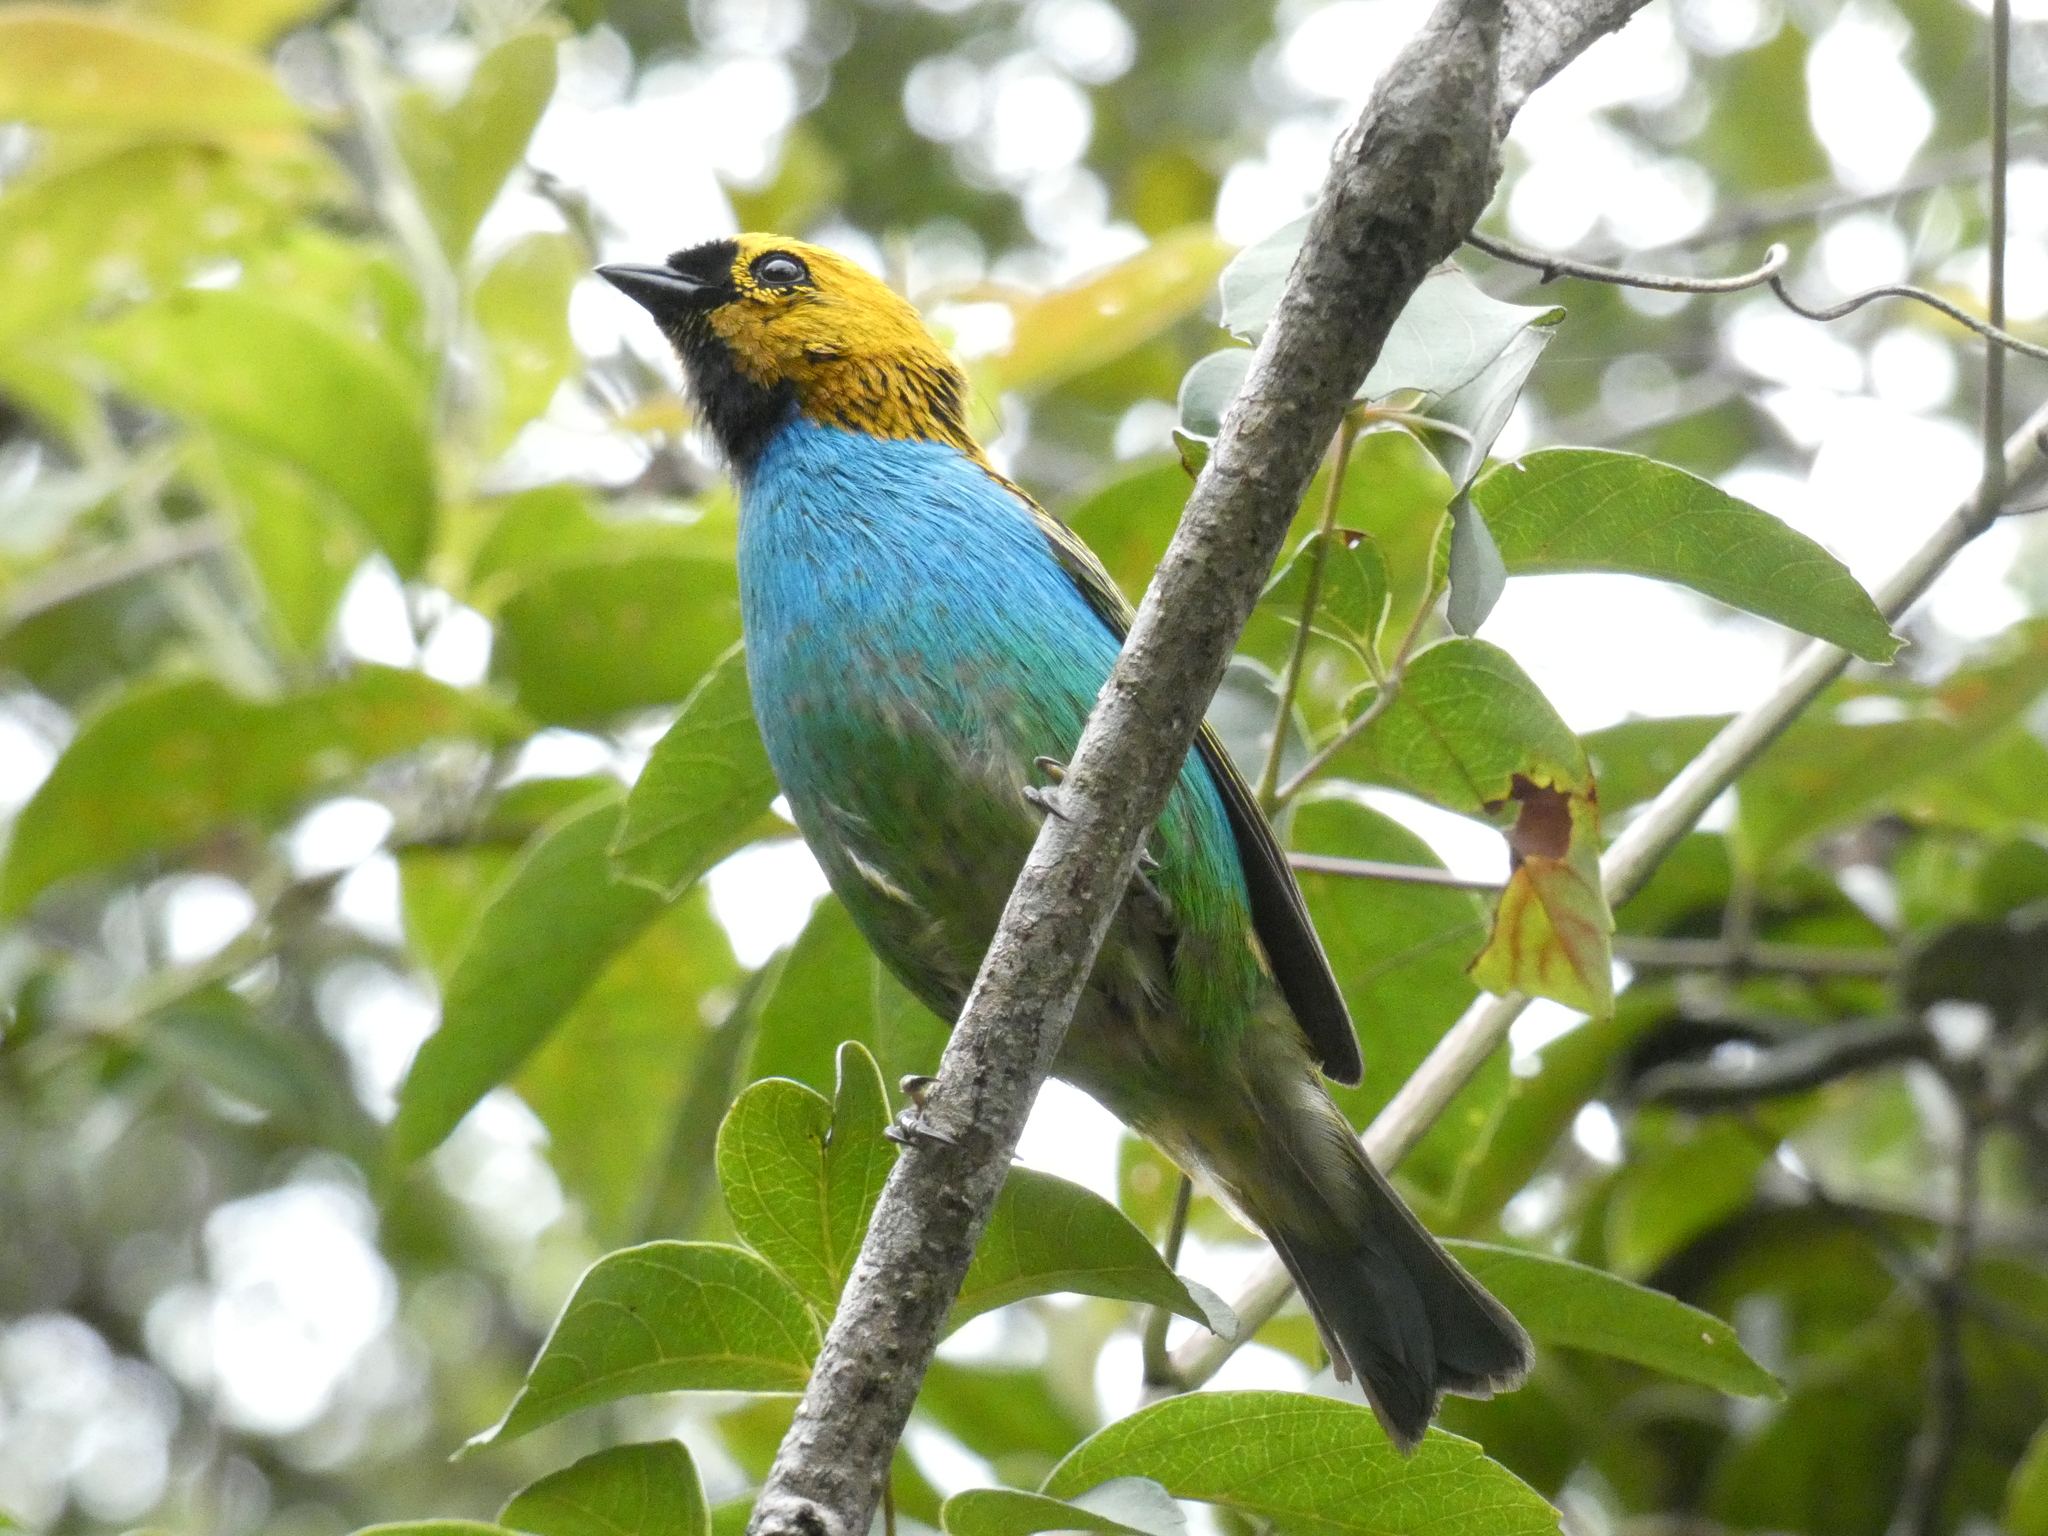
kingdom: Animalia
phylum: Chordata
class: Aves
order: Passeriformes
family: Thraupidae
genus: Tangara
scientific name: Tangara cyanoventris
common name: Gilt-edged tanager
